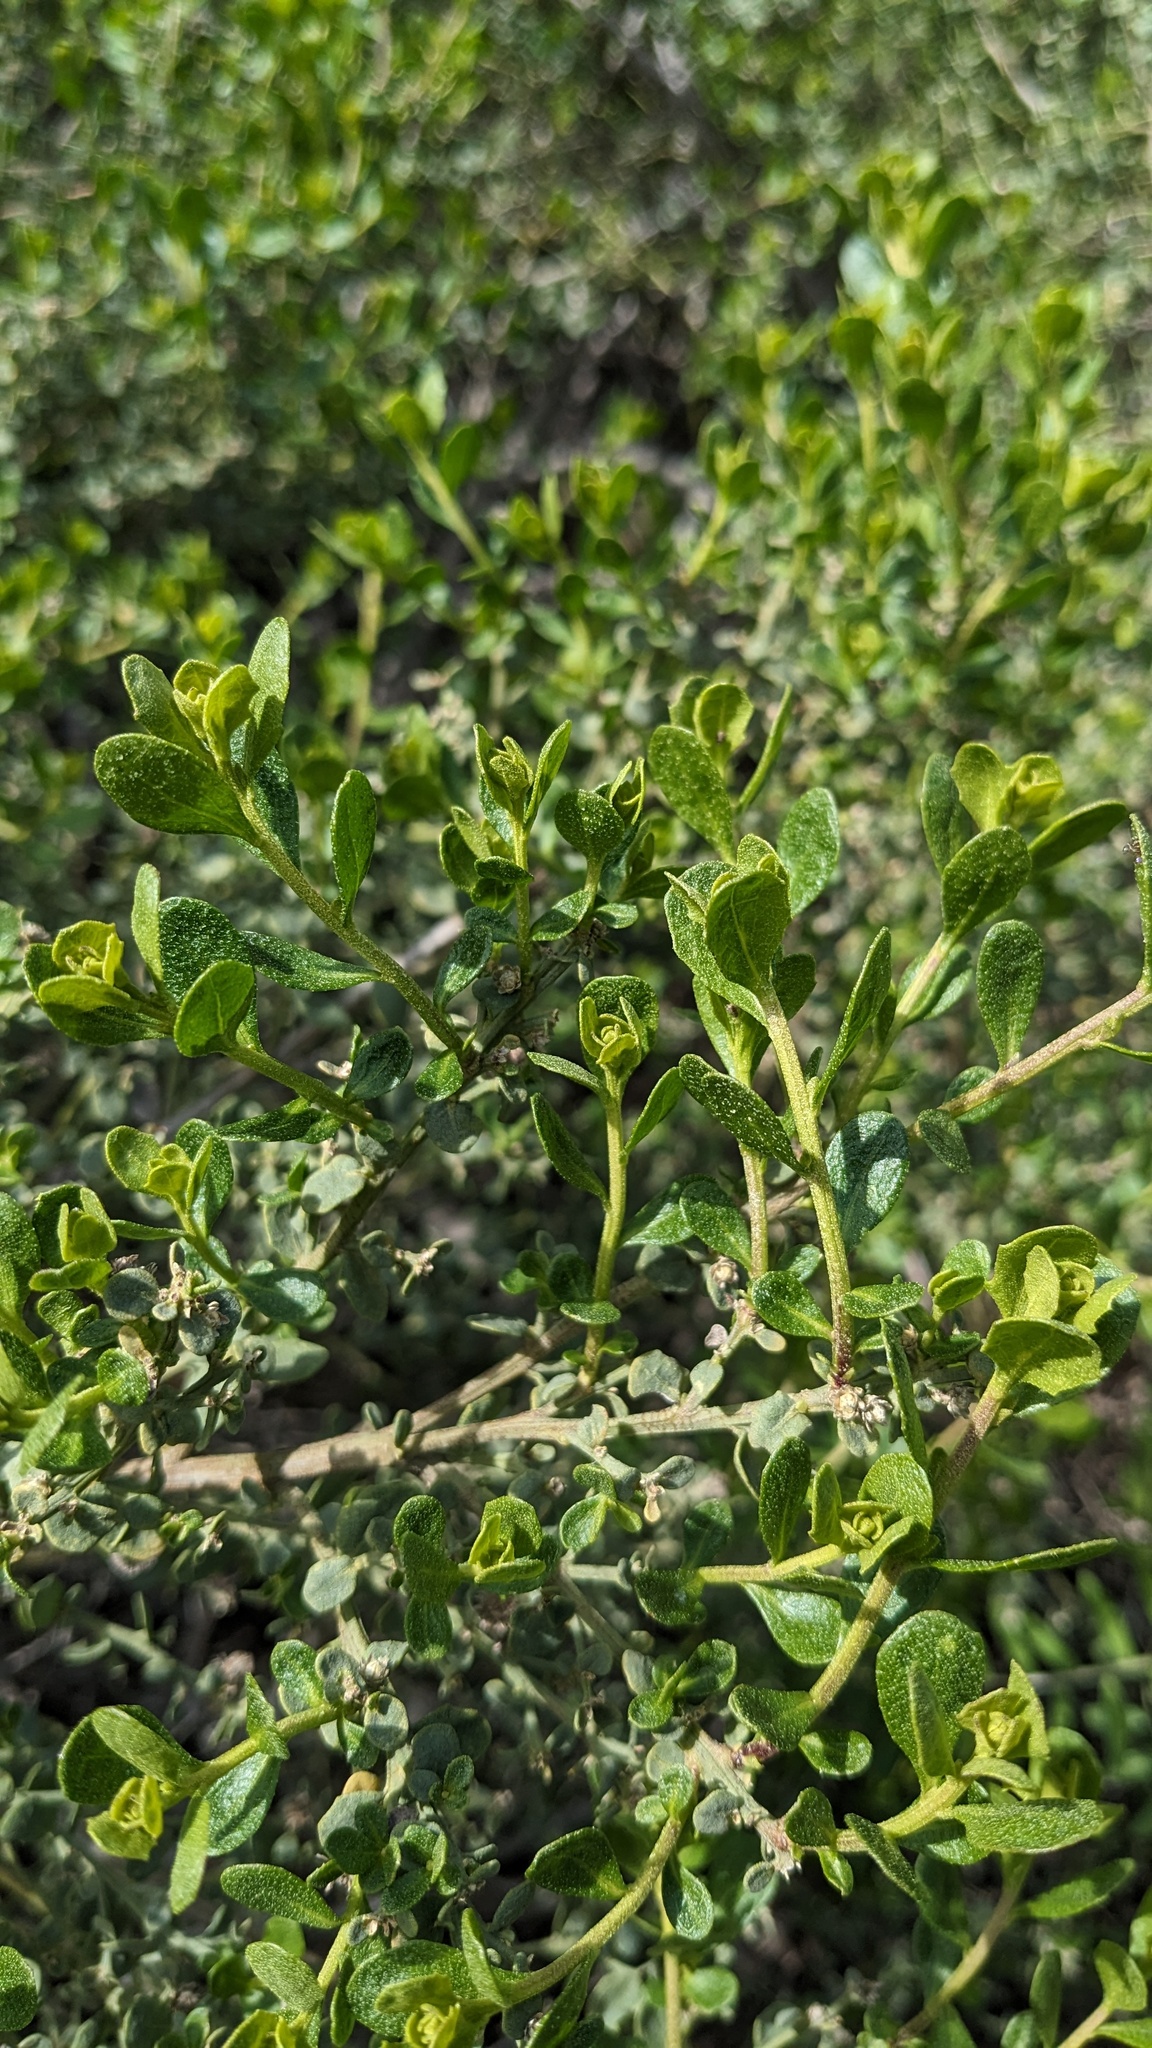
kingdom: Plantae
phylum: Tracheophyta
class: Magnoliopsida
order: Asterales
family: Asteraceae
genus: Baccharis
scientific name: Baccharis pilularis
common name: Coyotebrush
